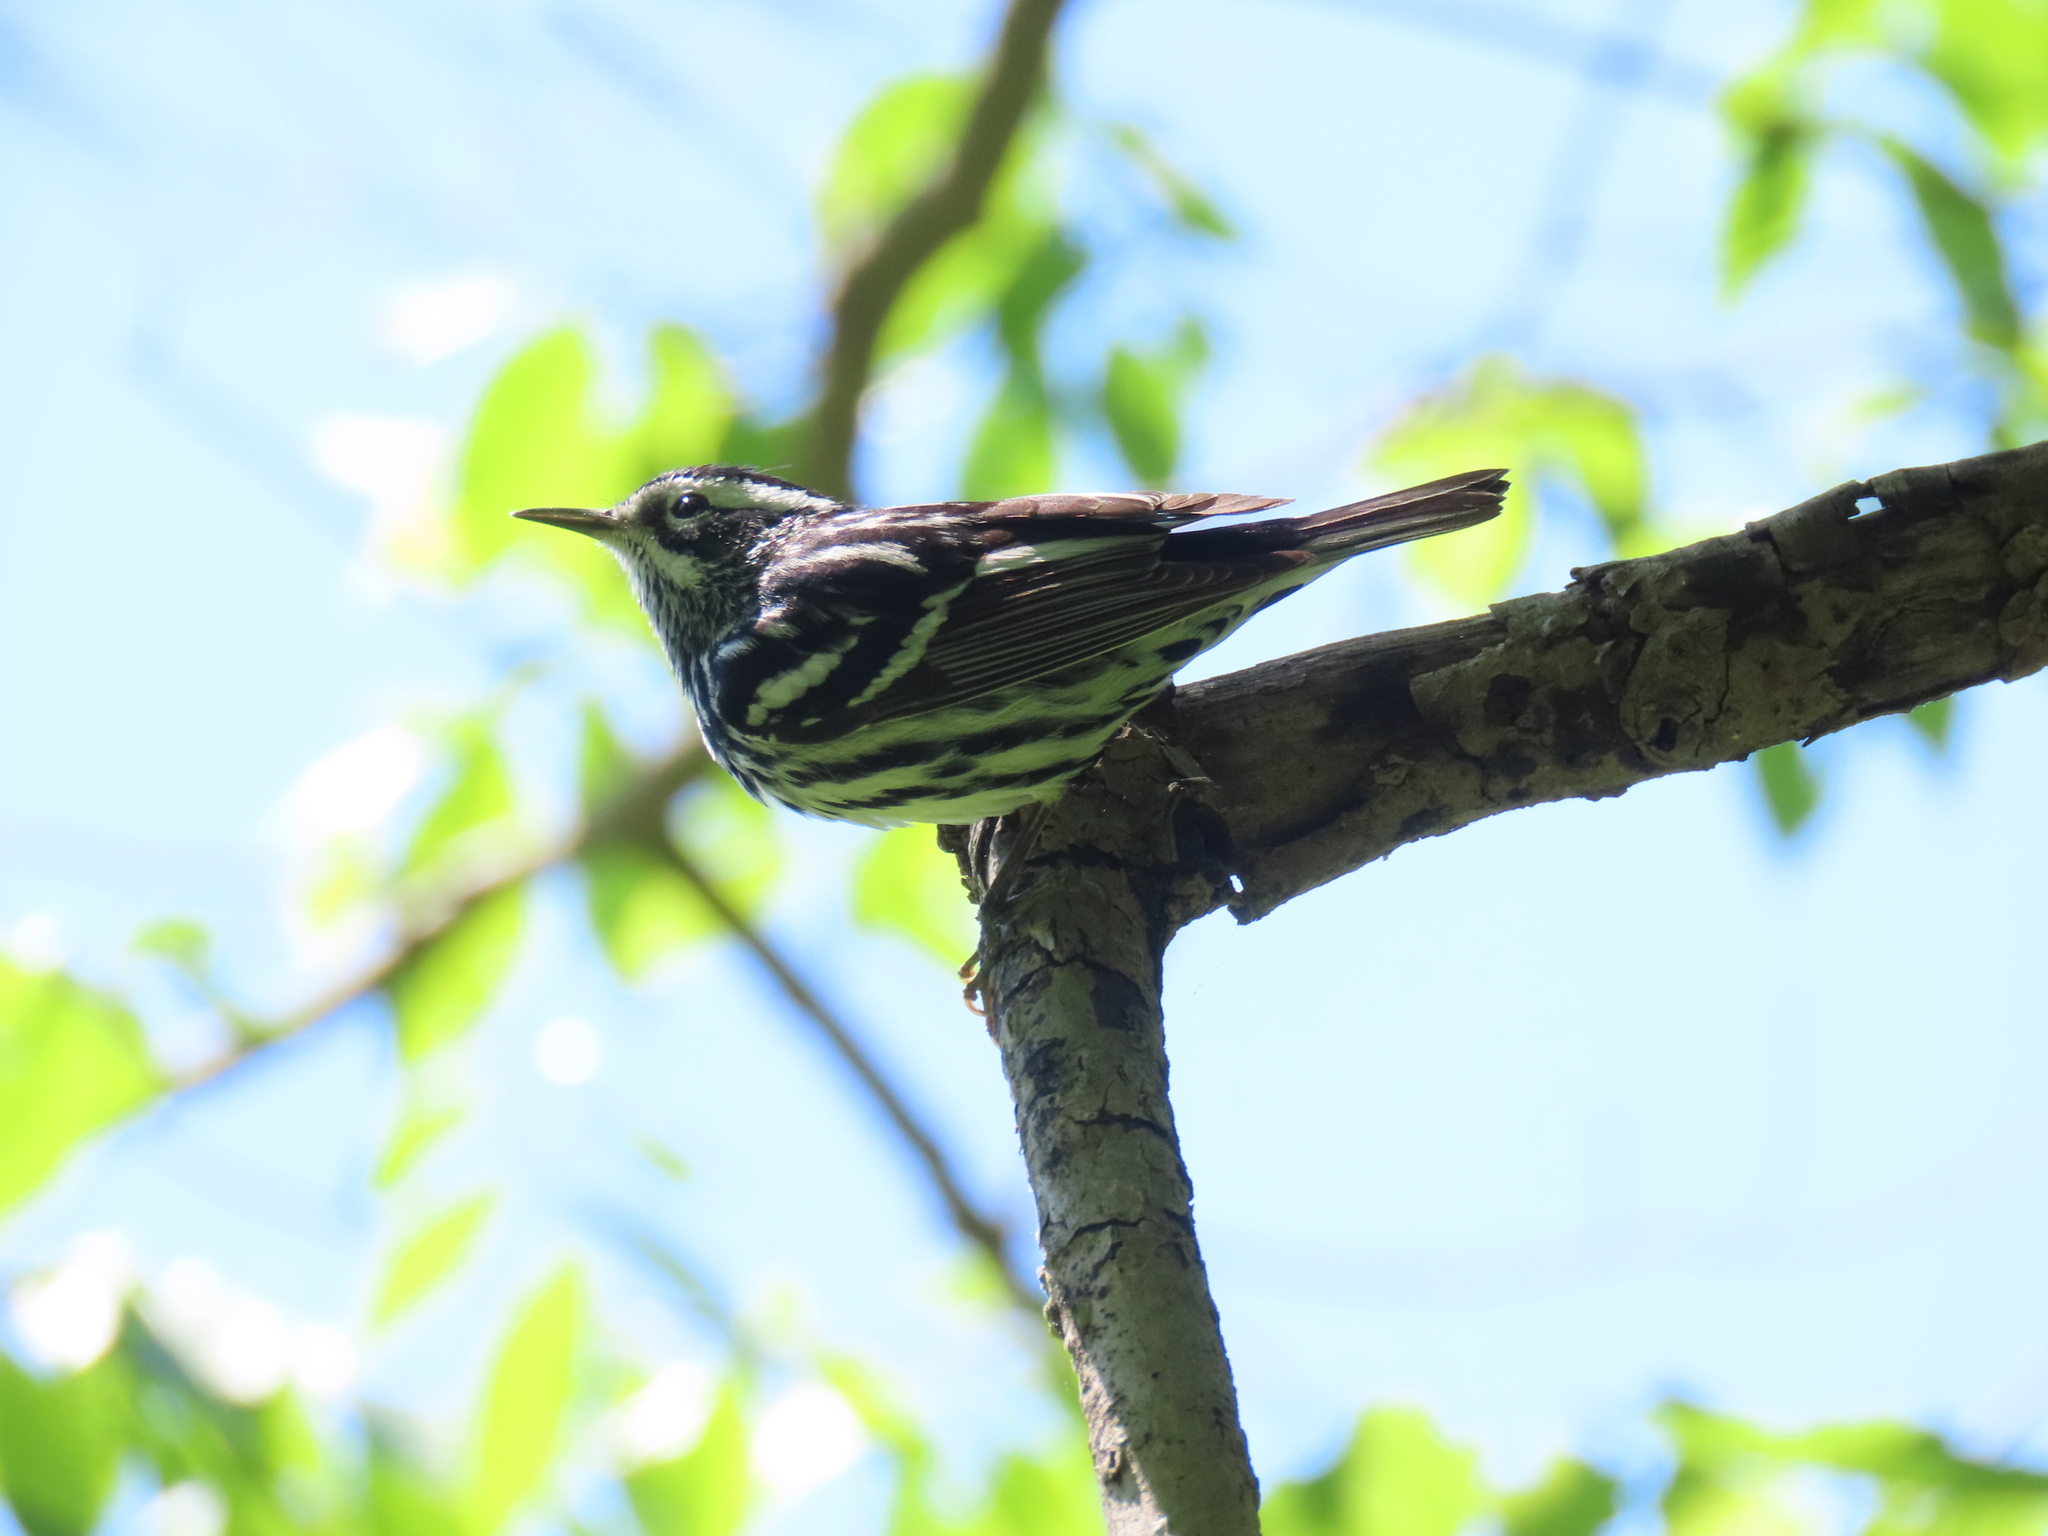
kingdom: Animalia
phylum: Chordata
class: Aves
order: Passeriformes
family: Parulidae
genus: Mniotilta
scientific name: Mniotilta varia
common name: Black-and-white warbler
